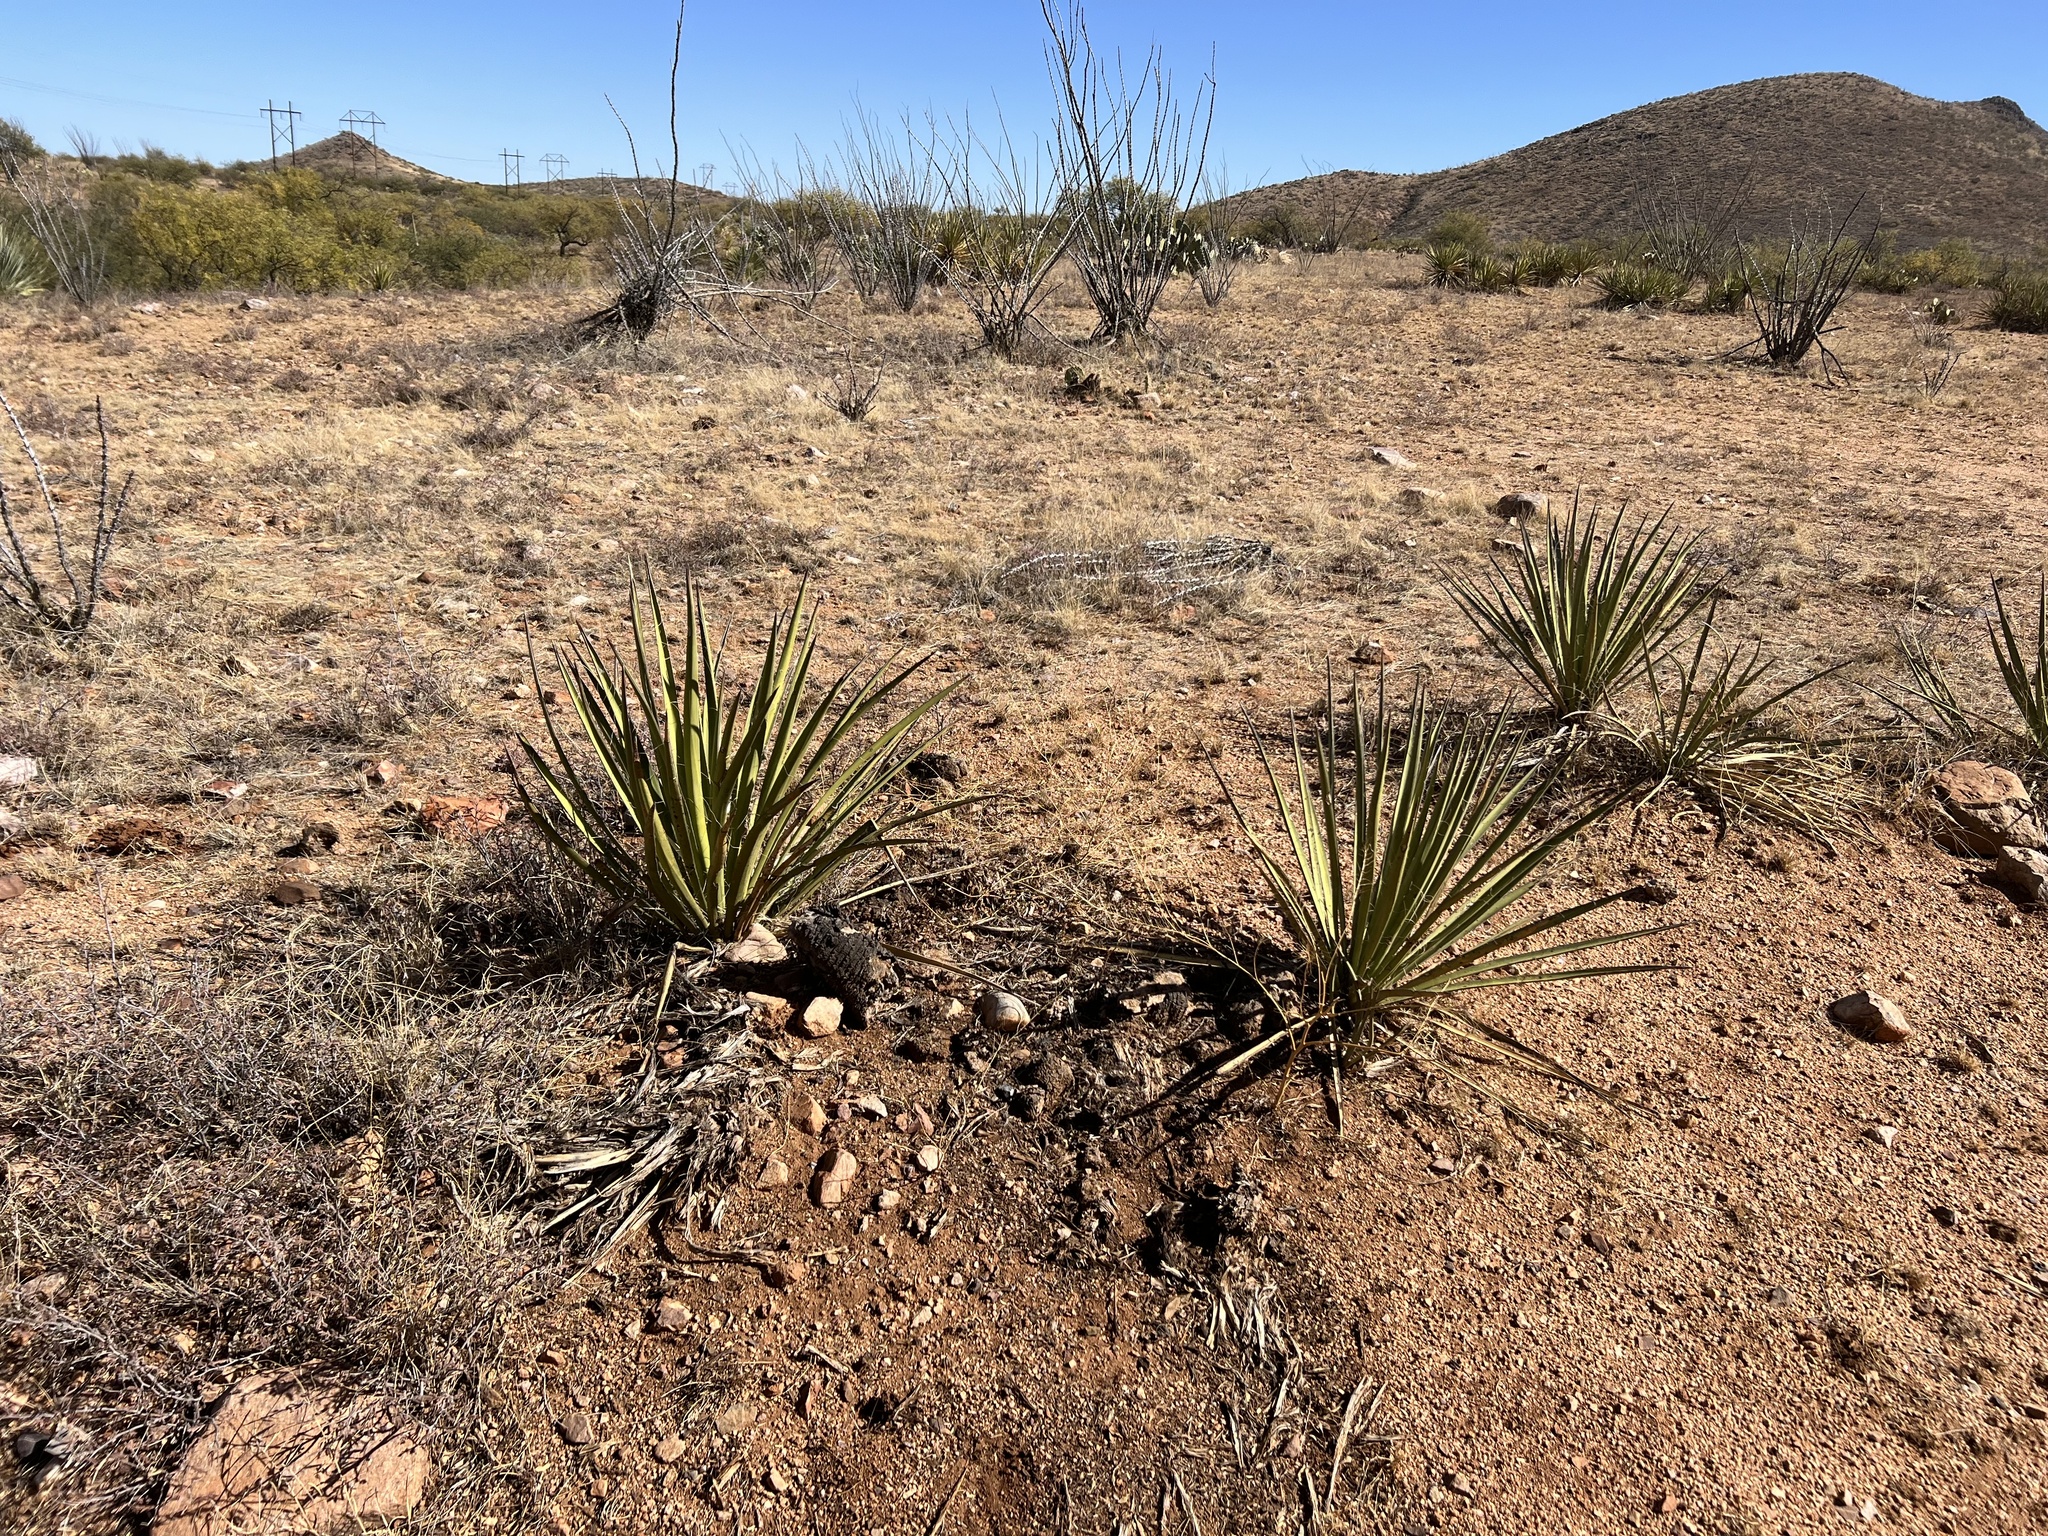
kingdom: Plantae
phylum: Tracheophyta
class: Liliopsida
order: Asparagales
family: Asparagaceae
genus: Yucca
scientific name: Yucca baccata
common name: Banana yucca
